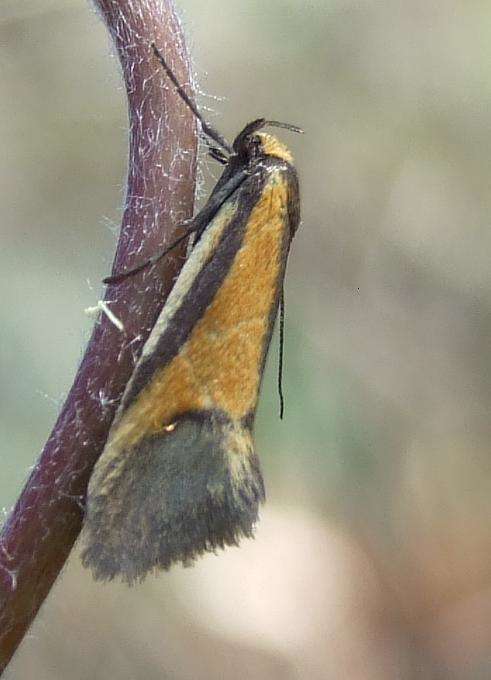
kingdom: Animalia
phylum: Arthropoda
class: Insecta
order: Lepidoptera
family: Oecophoridae
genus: Philobota
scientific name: Philobota arabella
